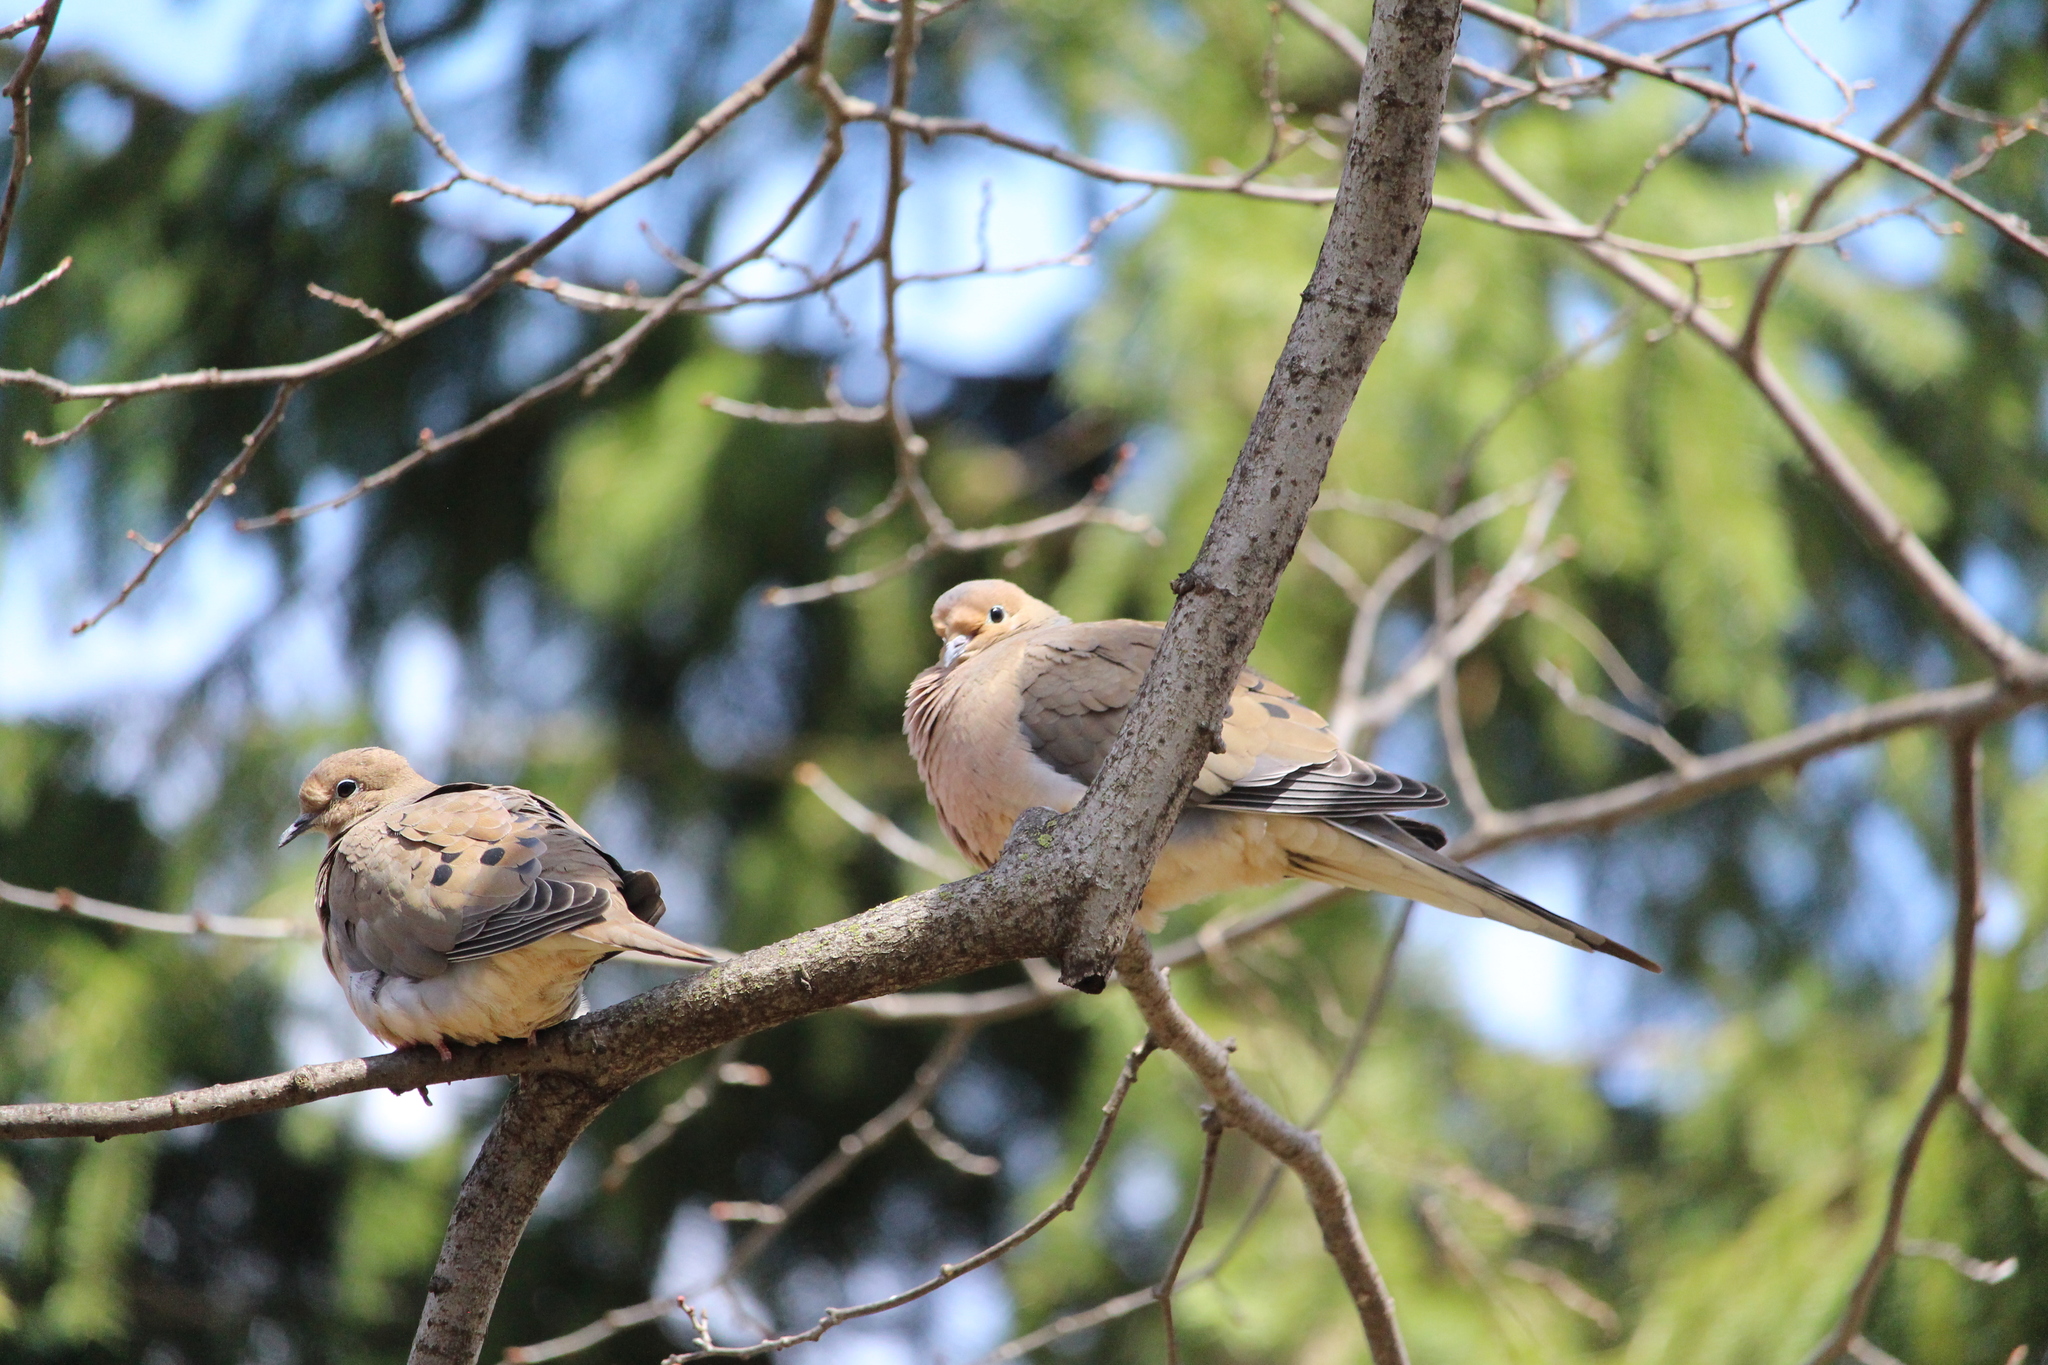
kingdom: Animalia
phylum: Chordata
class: Aves
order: Columbiformes
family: Columbidae
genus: Zenaida
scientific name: Zenaida macroura
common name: Mourning dove
